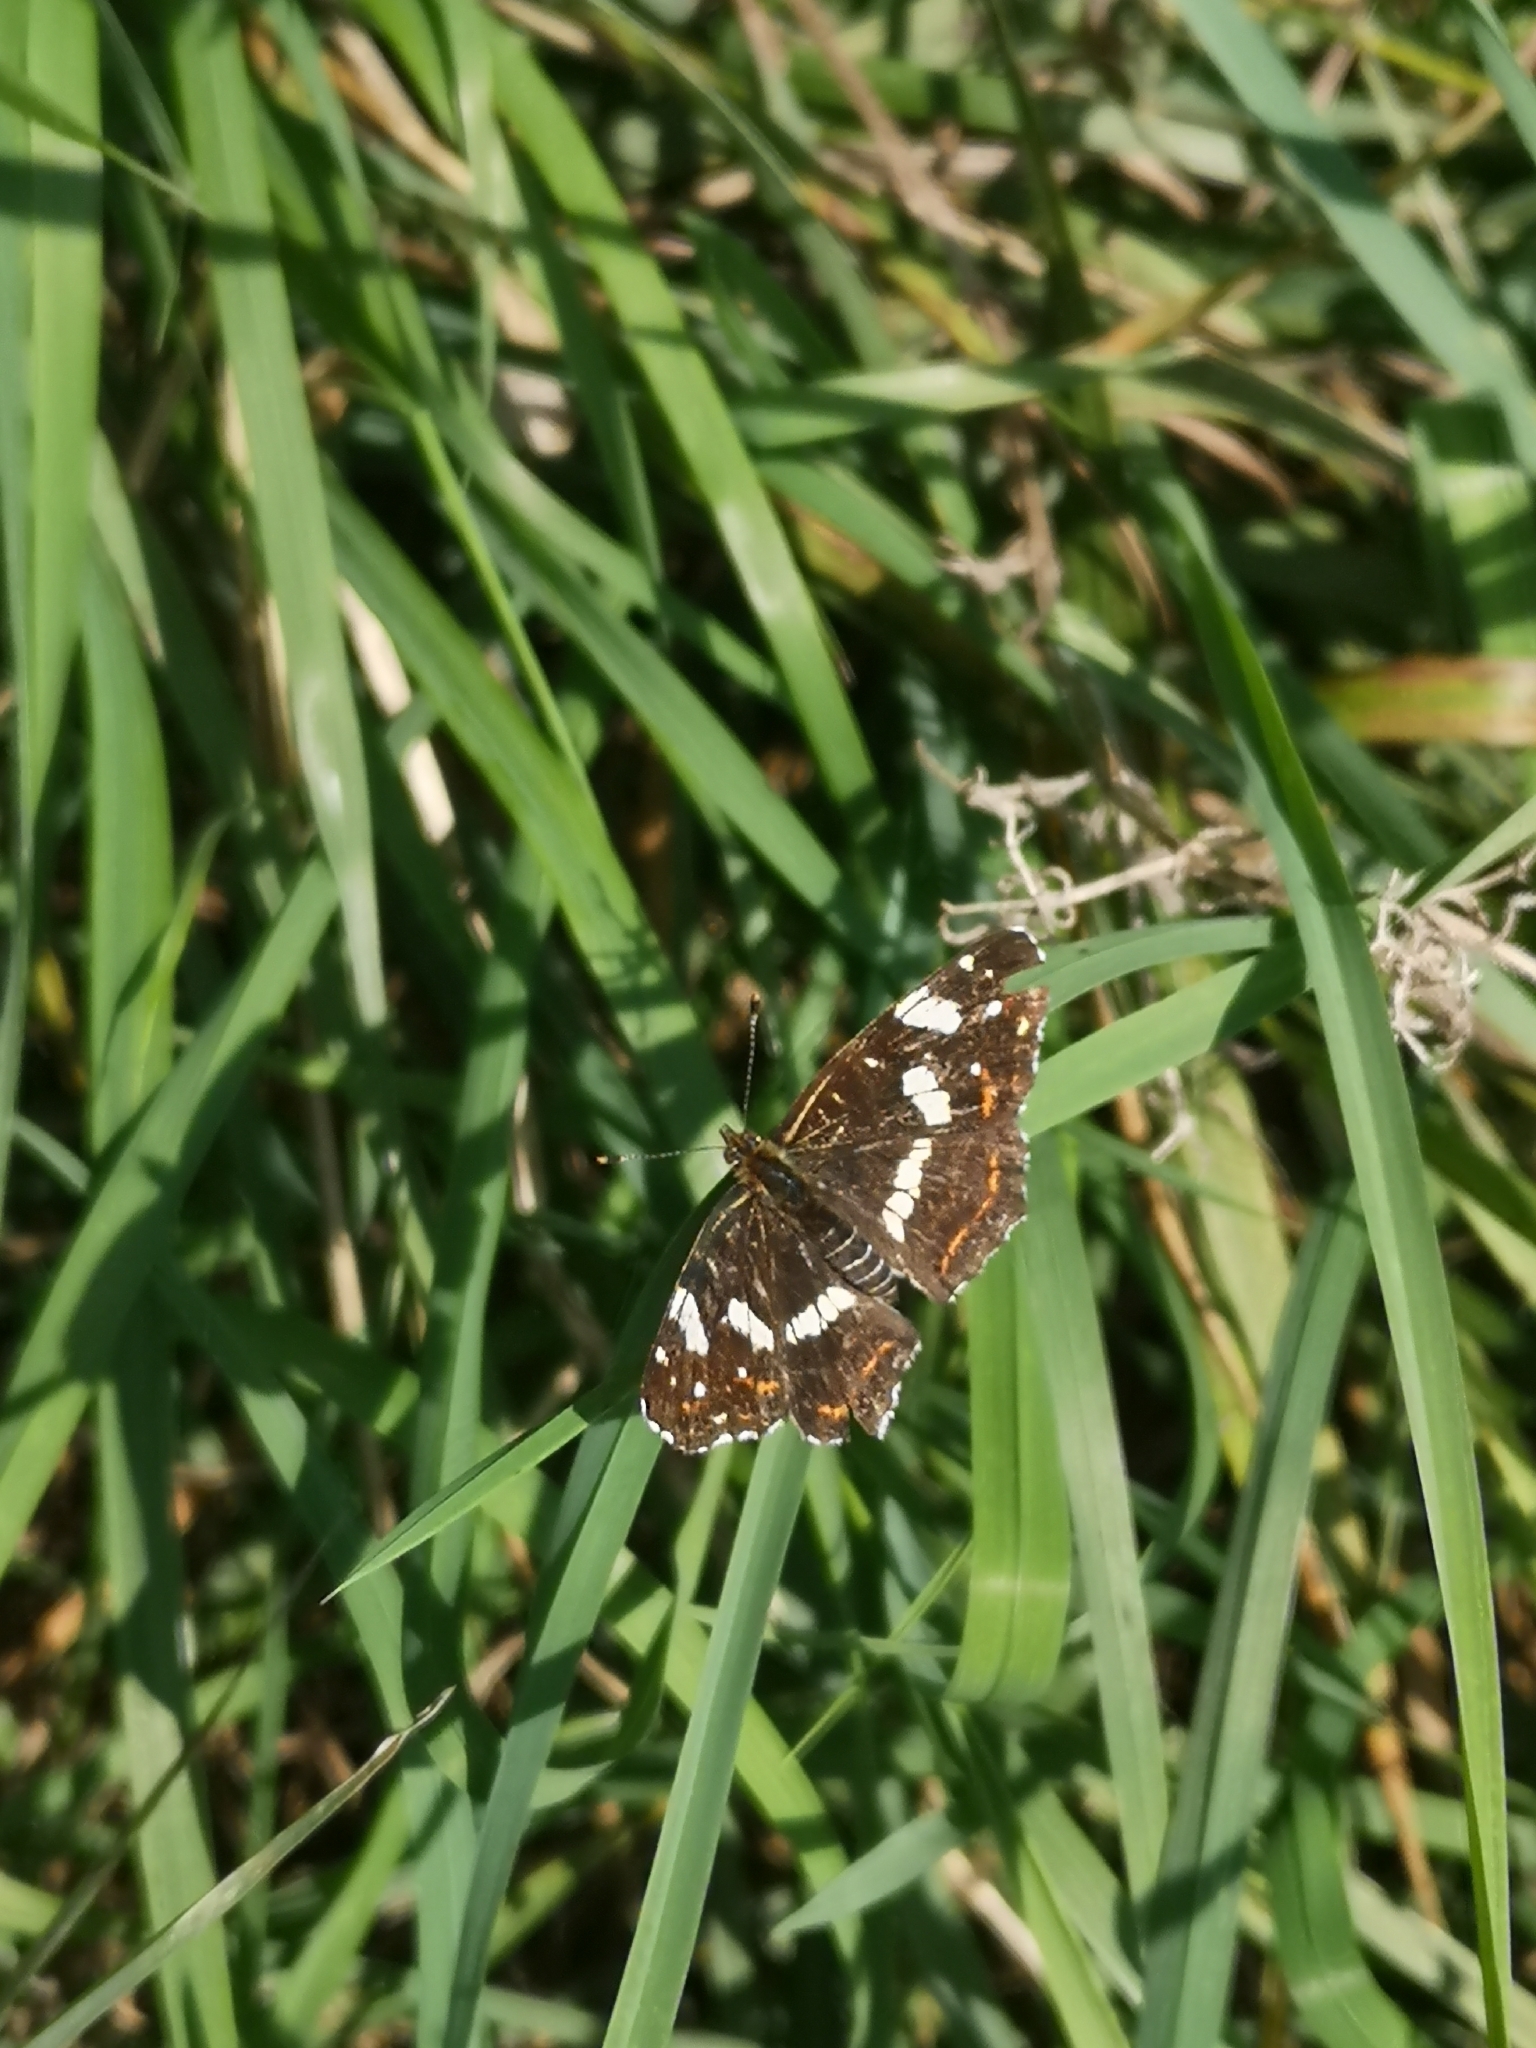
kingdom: Animalia
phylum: Arthropoda
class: Insecta
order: Lepidoptera
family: Nymphalidae
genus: Araschnia
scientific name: Araschnia levana
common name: Map butterfly
